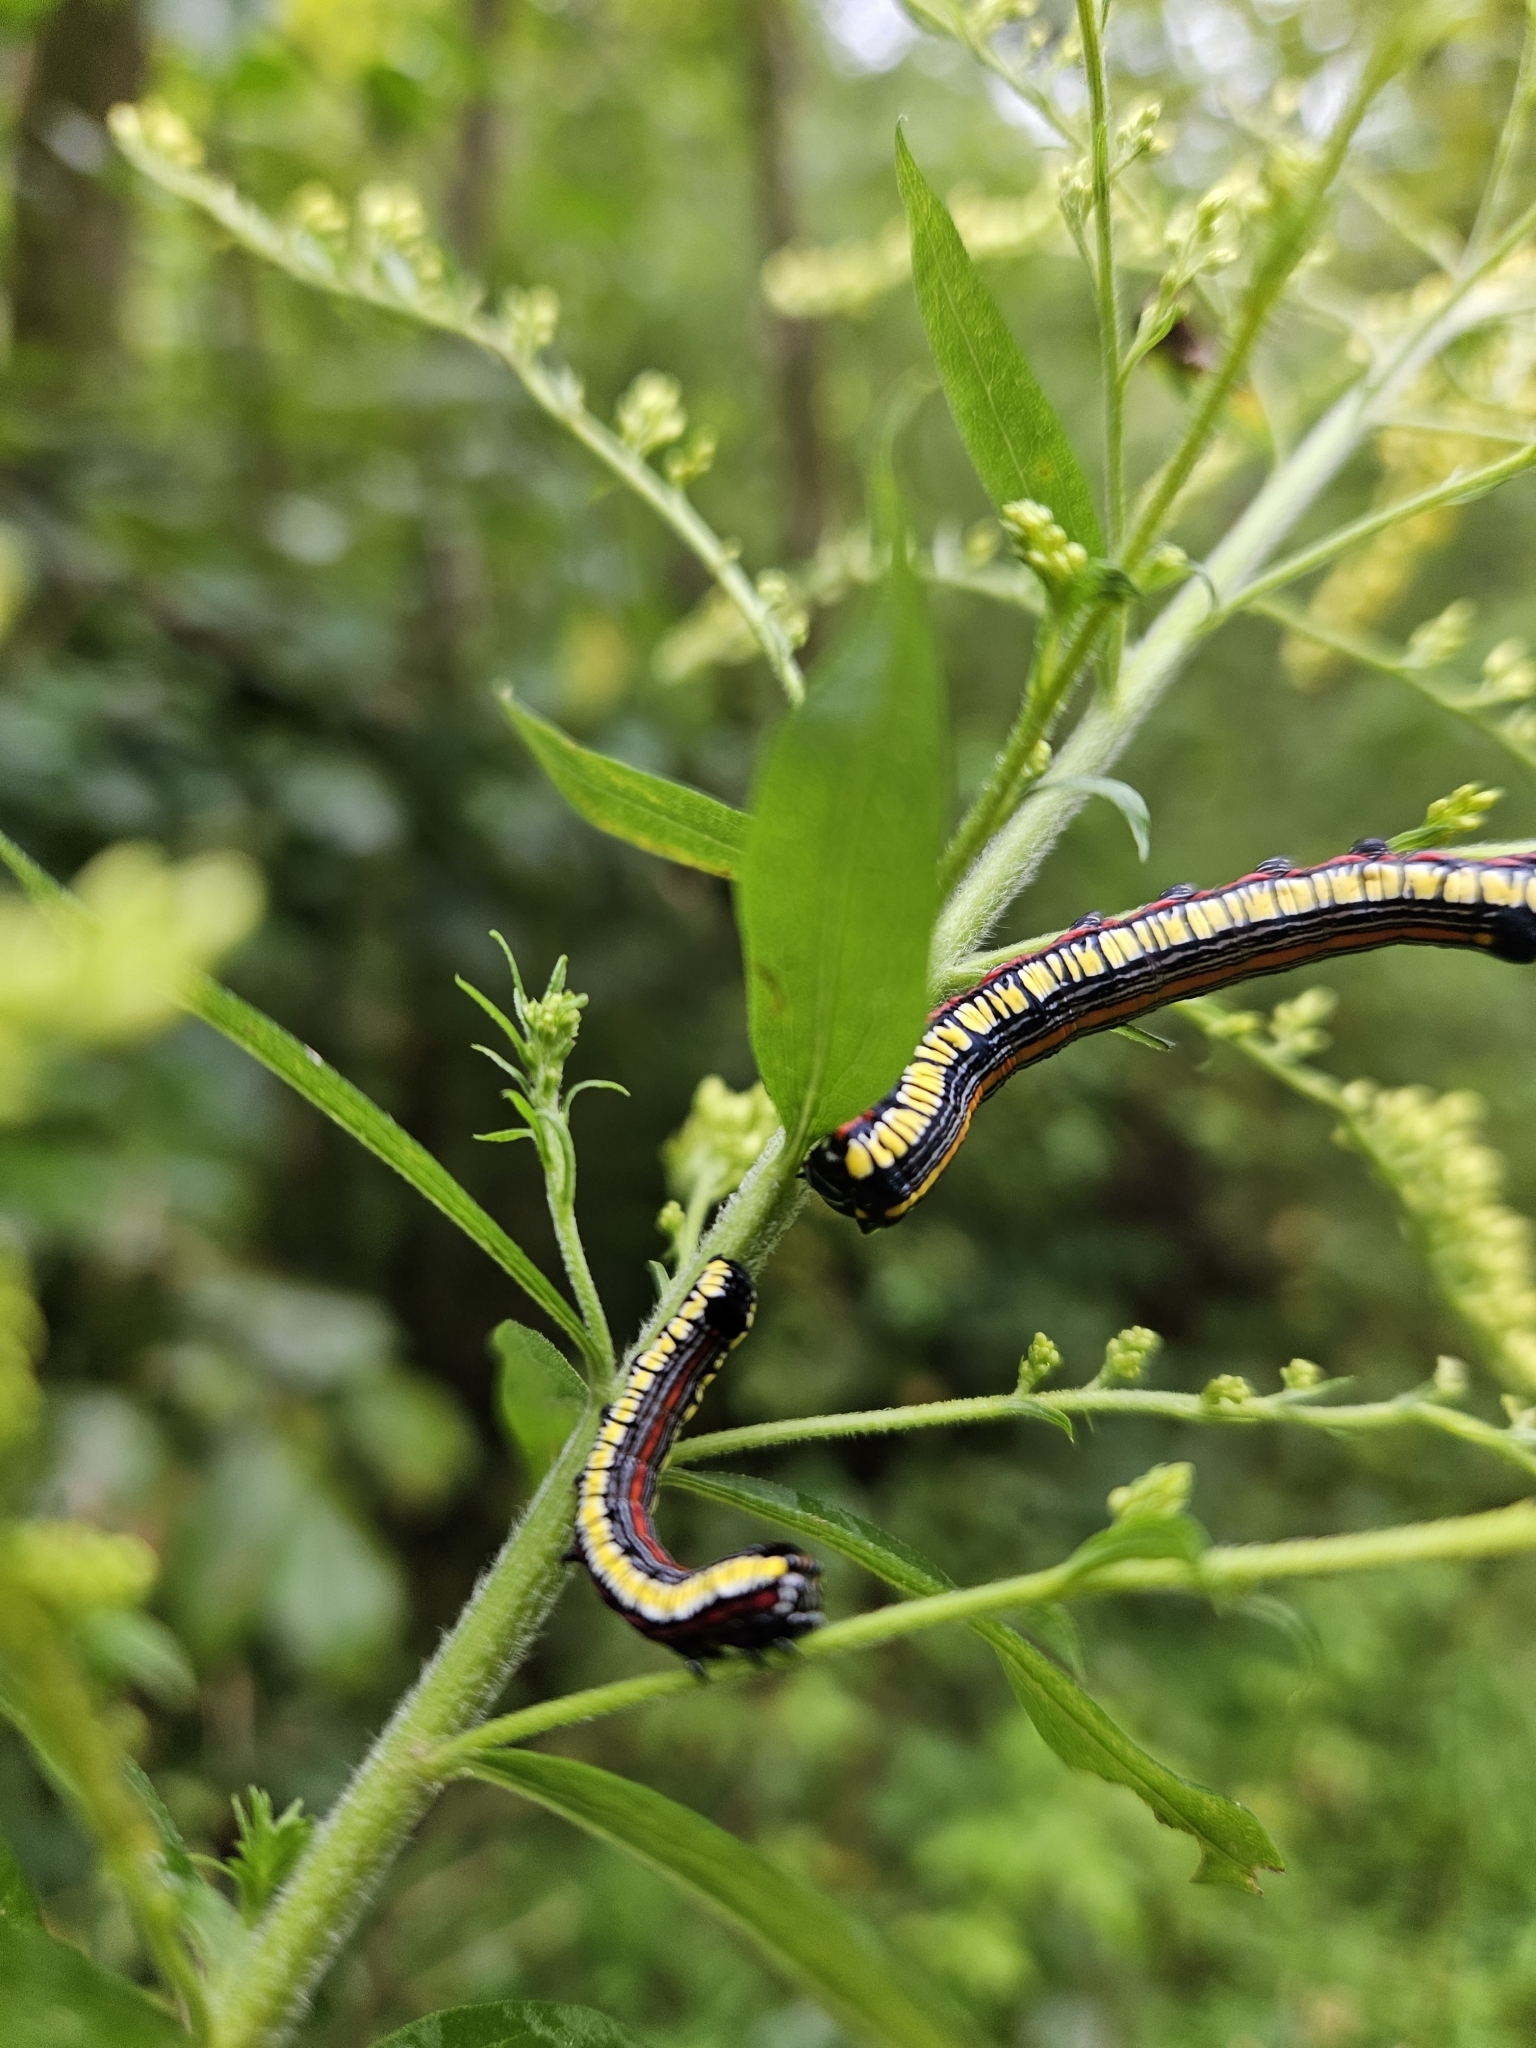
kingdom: Animalia
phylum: Arthropoda
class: Insecta
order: Lepidoptera
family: Noctuidae
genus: Cucullia
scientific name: Cucullia convexipennis
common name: Brown-hooded owlet
